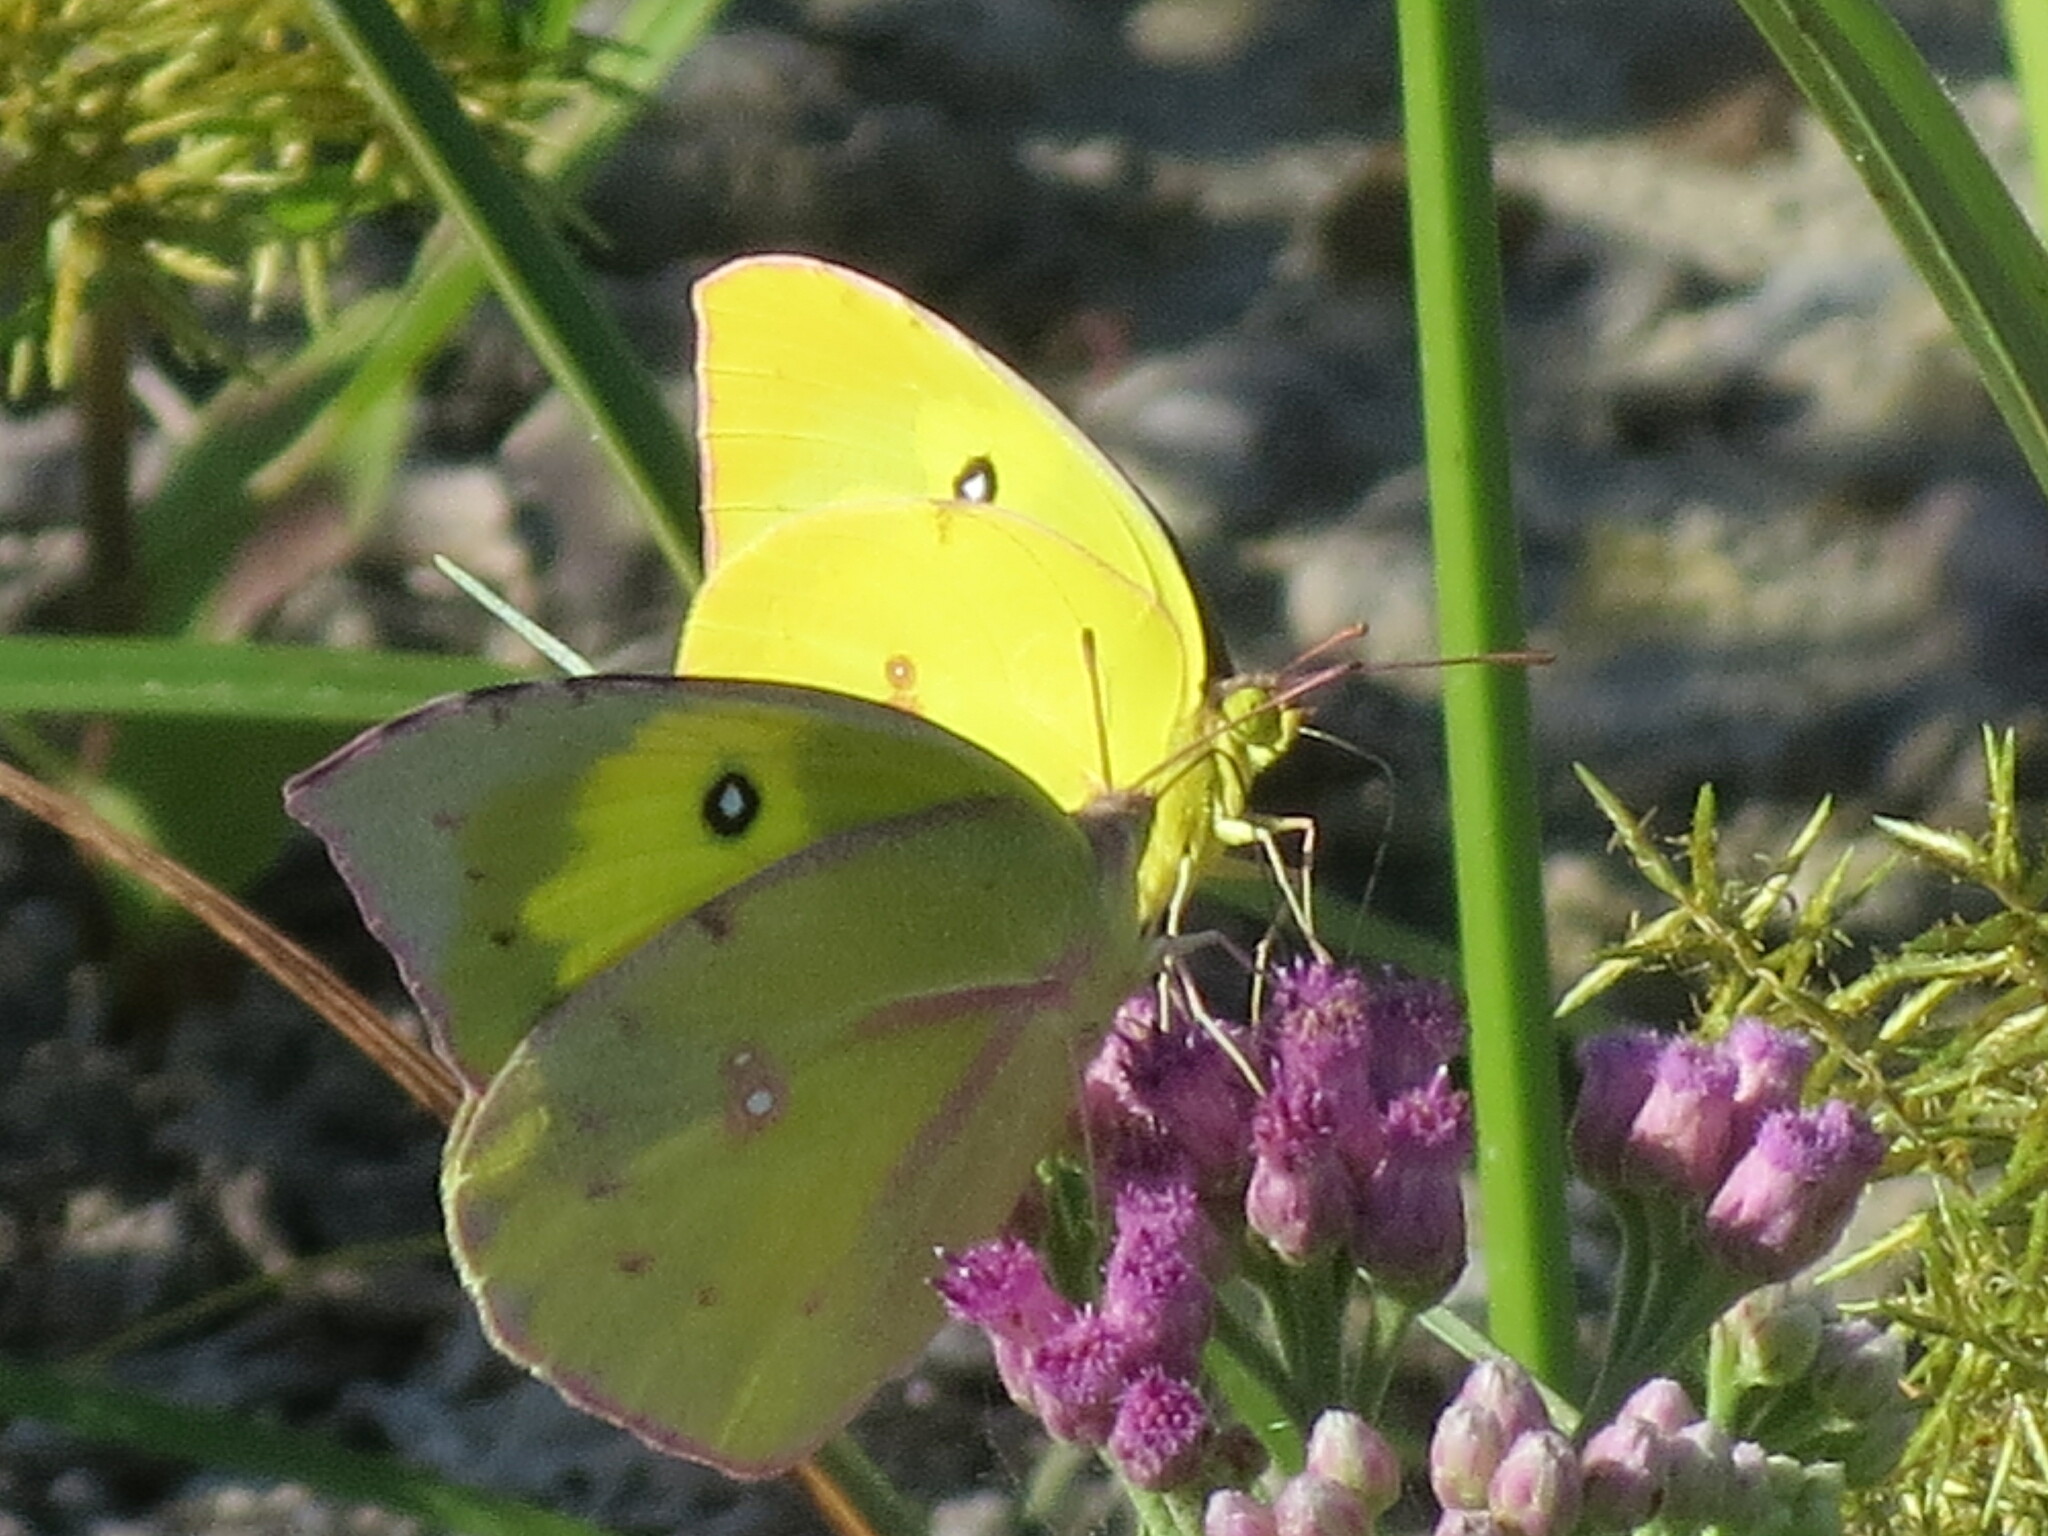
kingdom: Animalia
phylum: Arthropoda
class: Insecta
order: Lepidoptera
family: Pieridae
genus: Zerene
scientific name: Zerene cesonia
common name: Southern dogface
